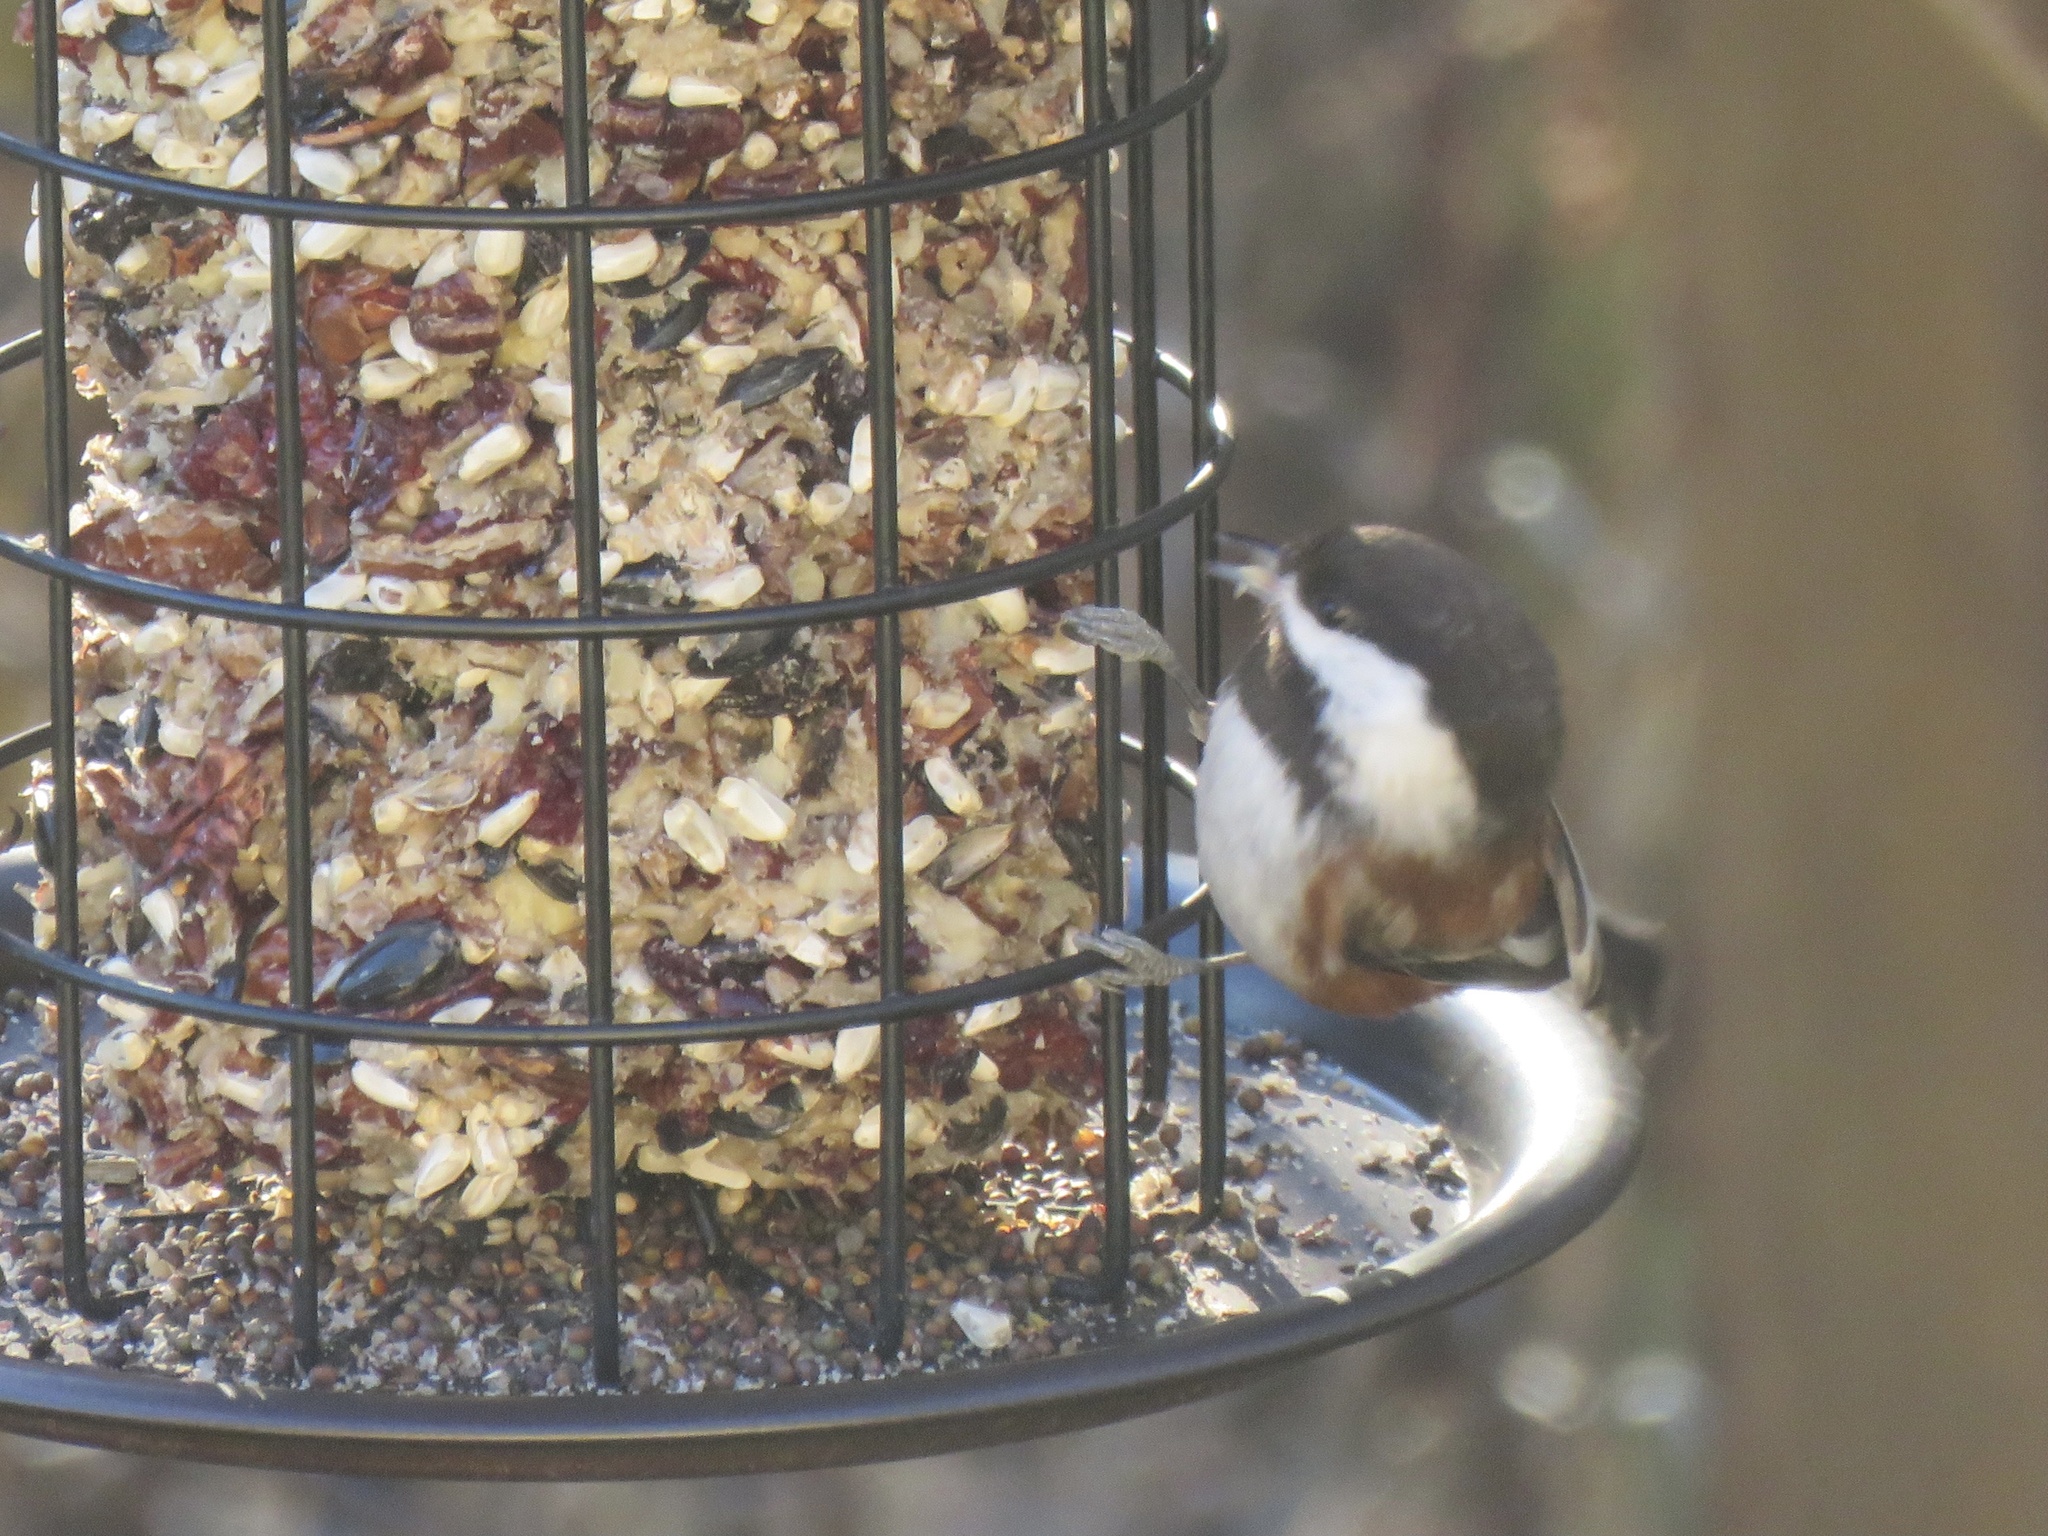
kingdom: Animalia
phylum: Chordata
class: Aves
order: Passeriformes
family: Paridae
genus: Poecile
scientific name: Poecile rufescens
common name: Chestnut-backed chickadee
